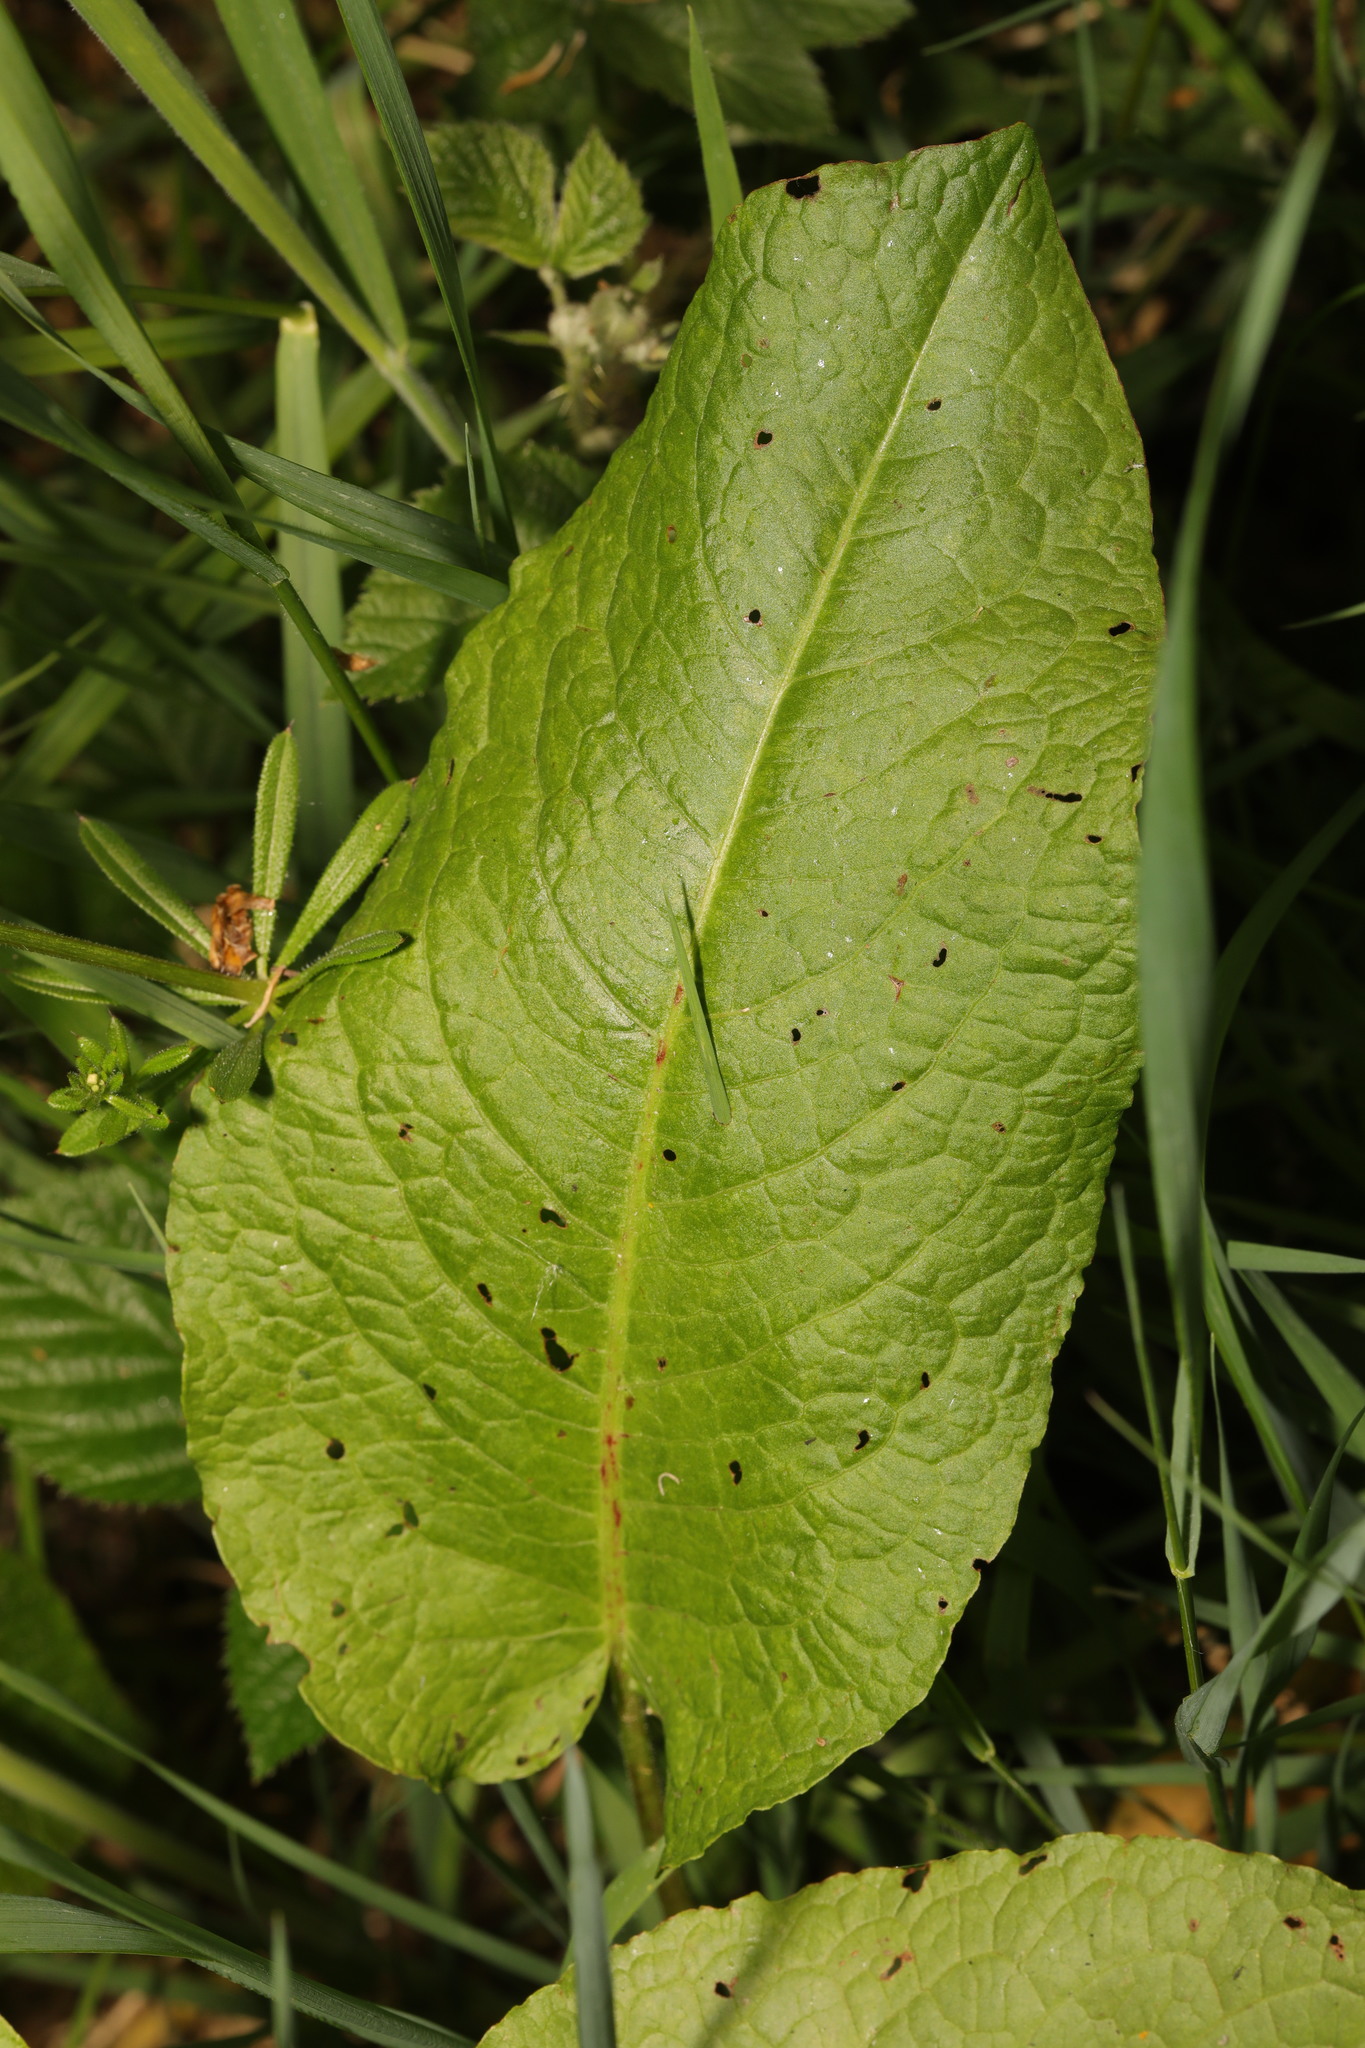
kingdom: Plantae
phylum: Tracheophyta
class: Magnoliopsida
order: Caryophyllales
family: Polygonaceae
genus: Rumex
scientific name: Rumex obtusifolius
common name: Bitter dock
